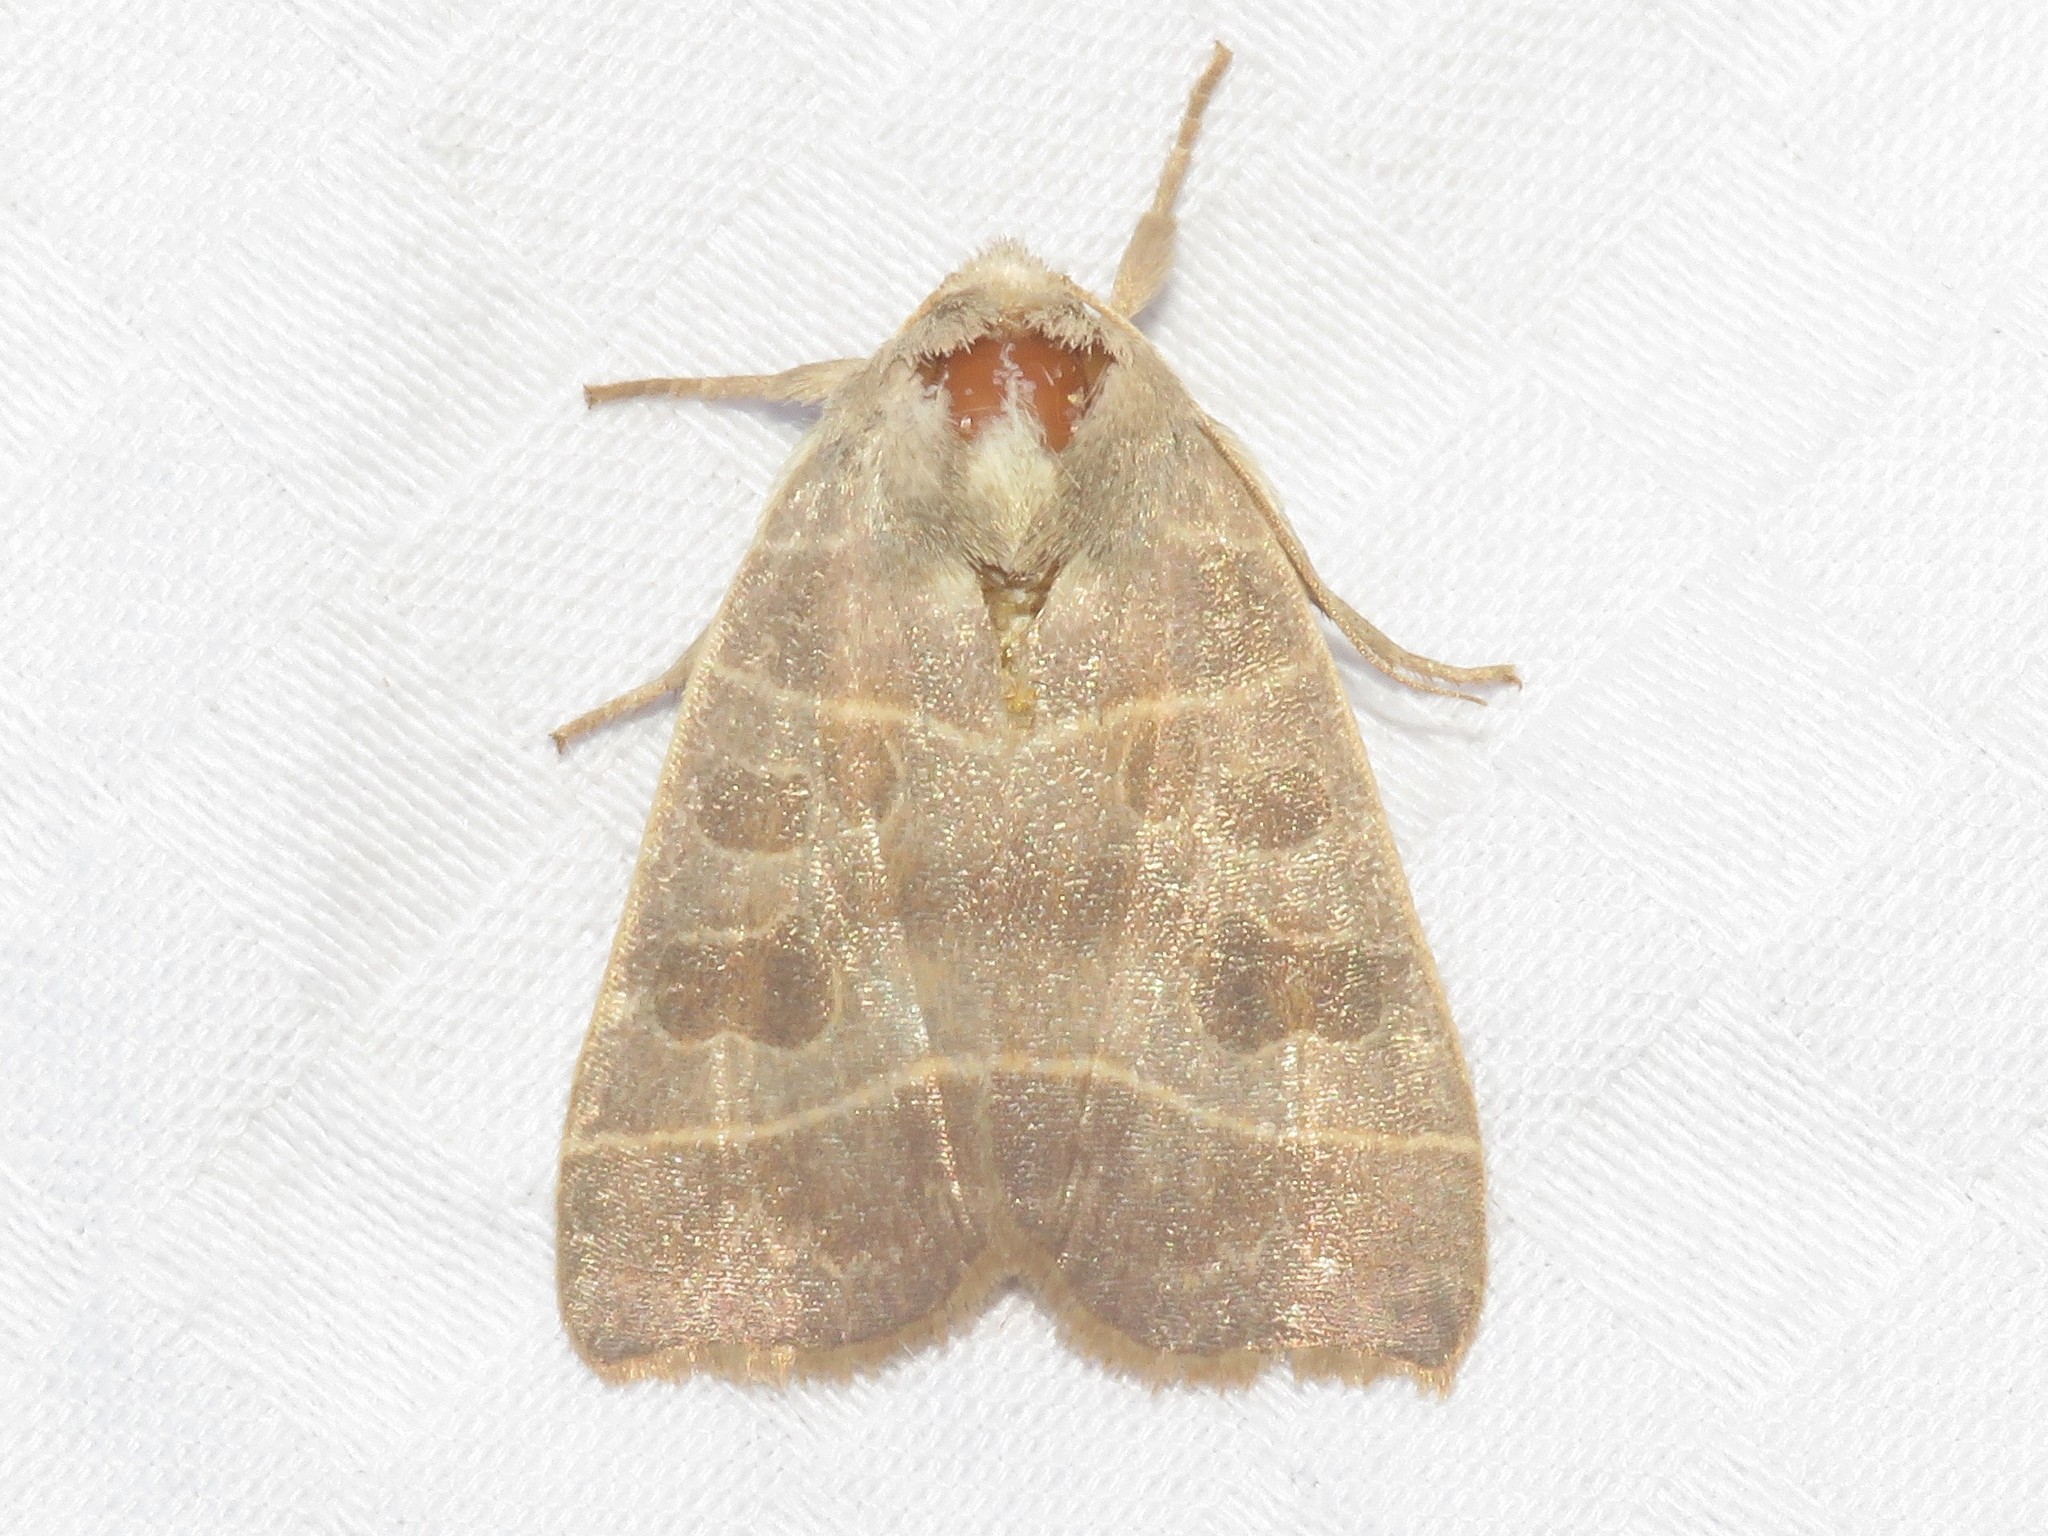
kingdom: Animalia
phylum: Arthropoda
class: Insecta
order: Lepidoptera
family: Noctuidae
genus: Ipimorpha
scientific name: Ipimorpha pleonectusa
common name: Even-lined sallow
